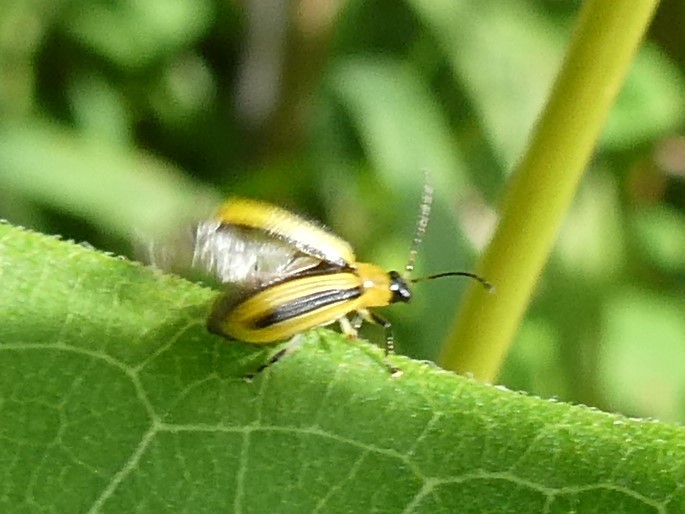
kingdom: Animalia
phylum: Arthropoda
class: Insecta
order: Coleoptera
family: Chrysomelidae
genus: Acalymma
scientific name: Acalymma vittatum
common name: Striped cucumber beetle
